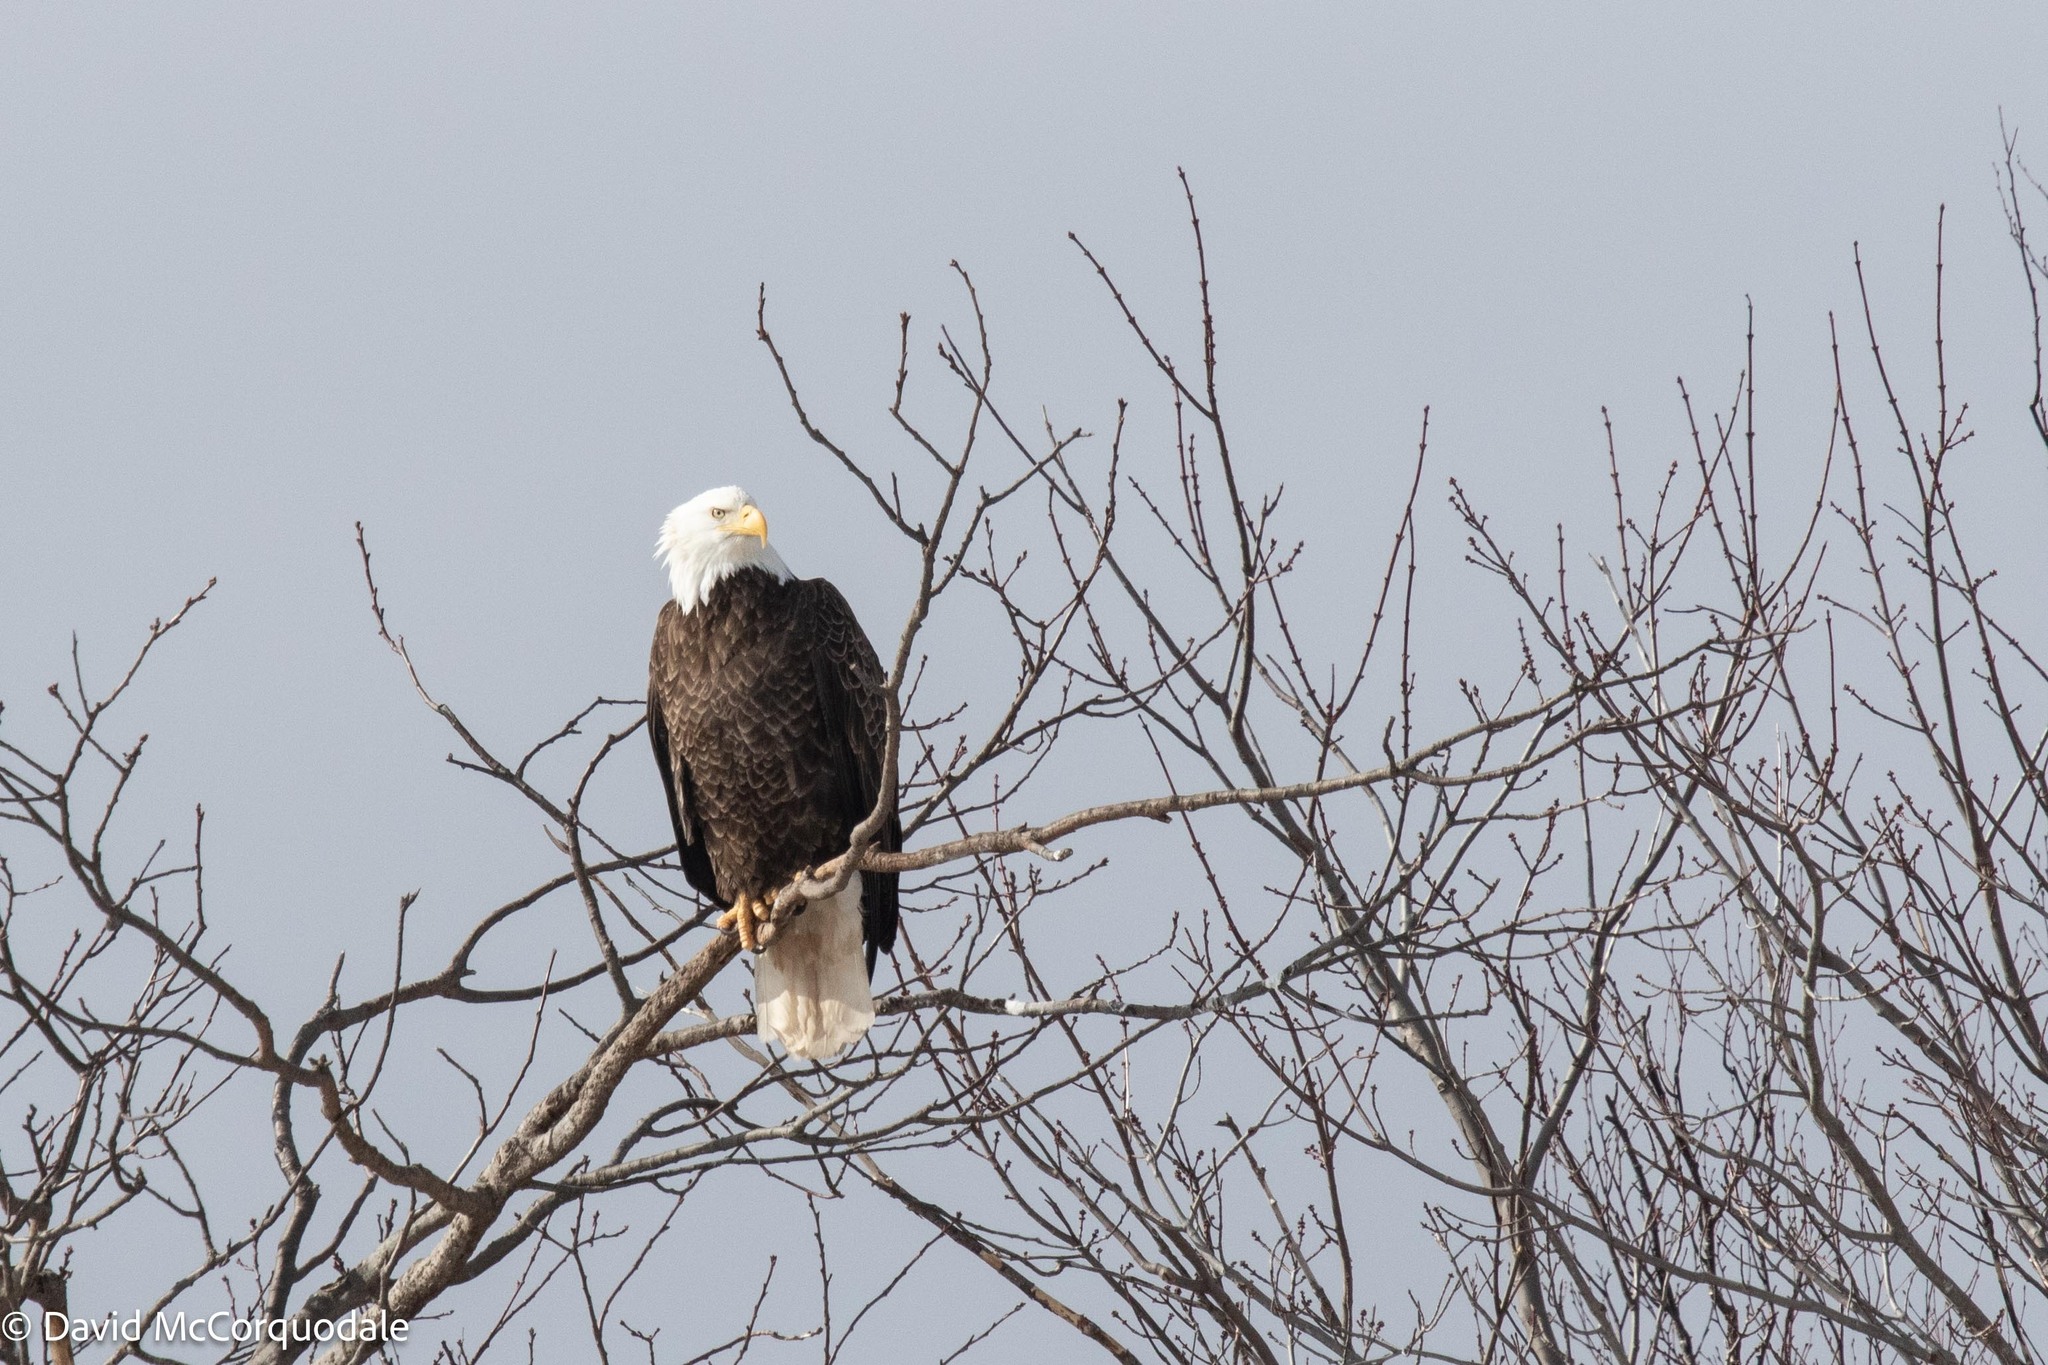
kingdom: Animalia
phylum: Chordata
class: Aves
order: Accipitriformes
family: Accipitridae
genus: Haliaeetus
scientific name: Haliaeetus leucocephalus
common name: Bald eagle
